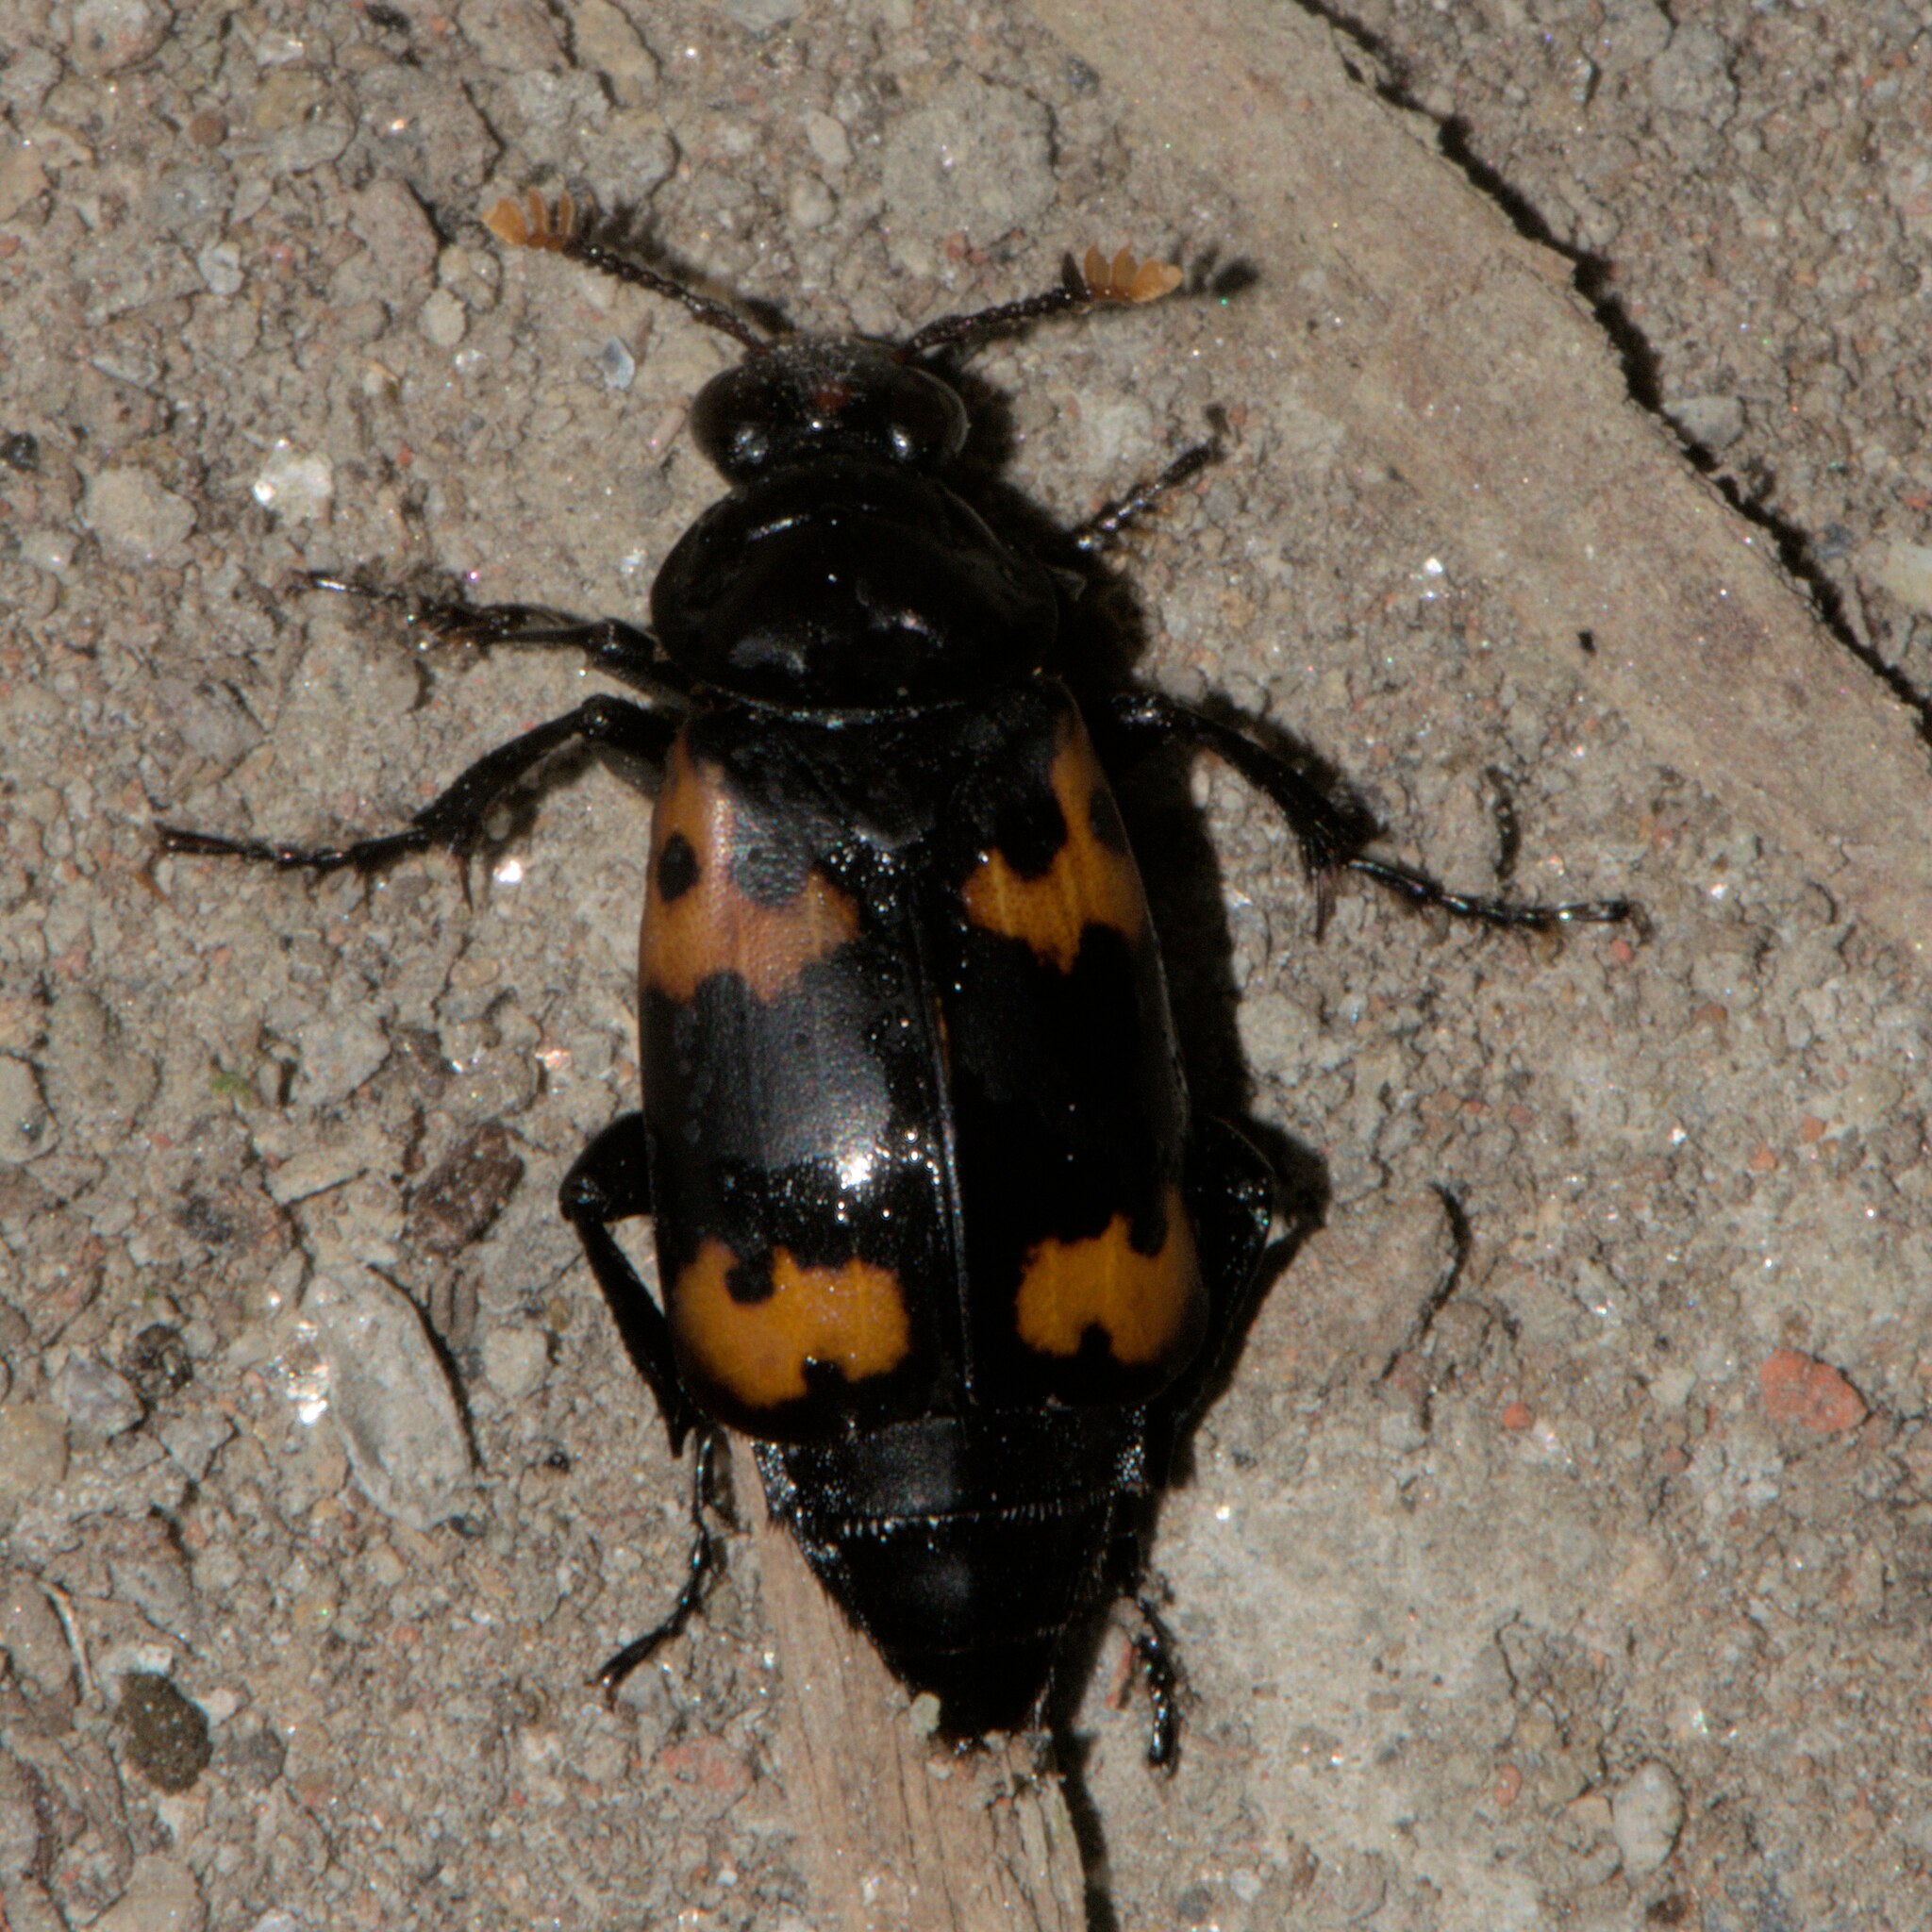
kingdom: Animalia
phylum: Arthropoda
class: Insecta
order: Coleoptera
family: Staphylinidae
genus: Nicrophorus
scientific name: Nicrophorus nepalensis
